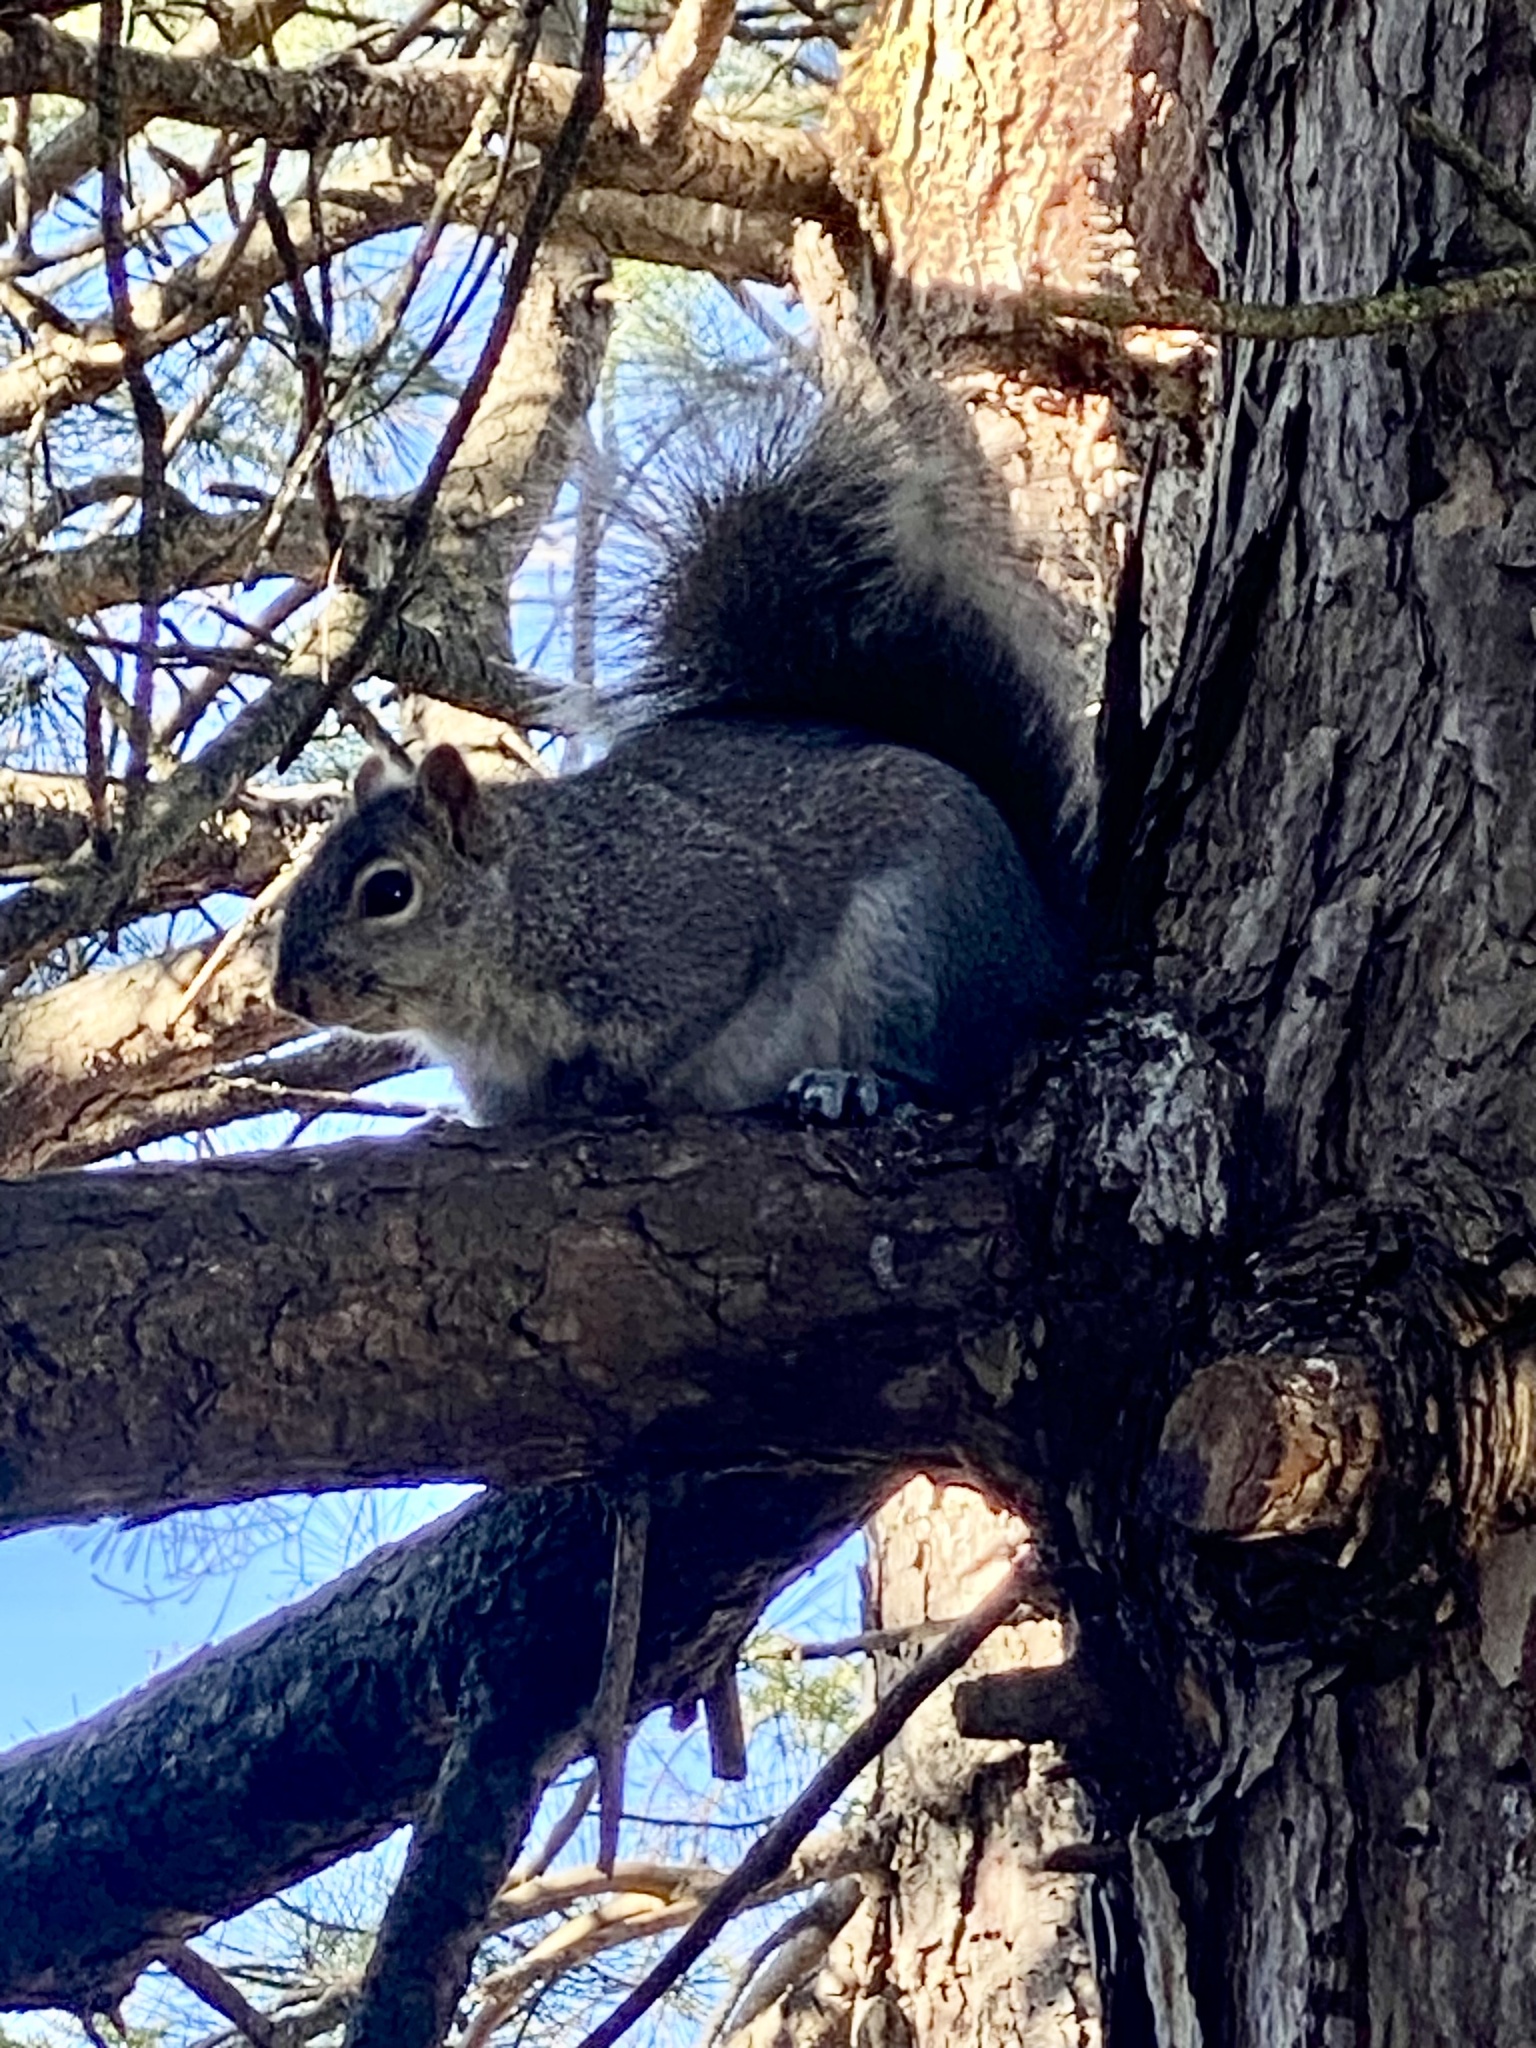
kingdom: Animalia
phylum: Chordata
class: Mammalia
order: Rodentia
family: Sciuridae
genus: Sciurus
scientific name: Sciurus carolinensis
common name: Eastern gray squirrel
